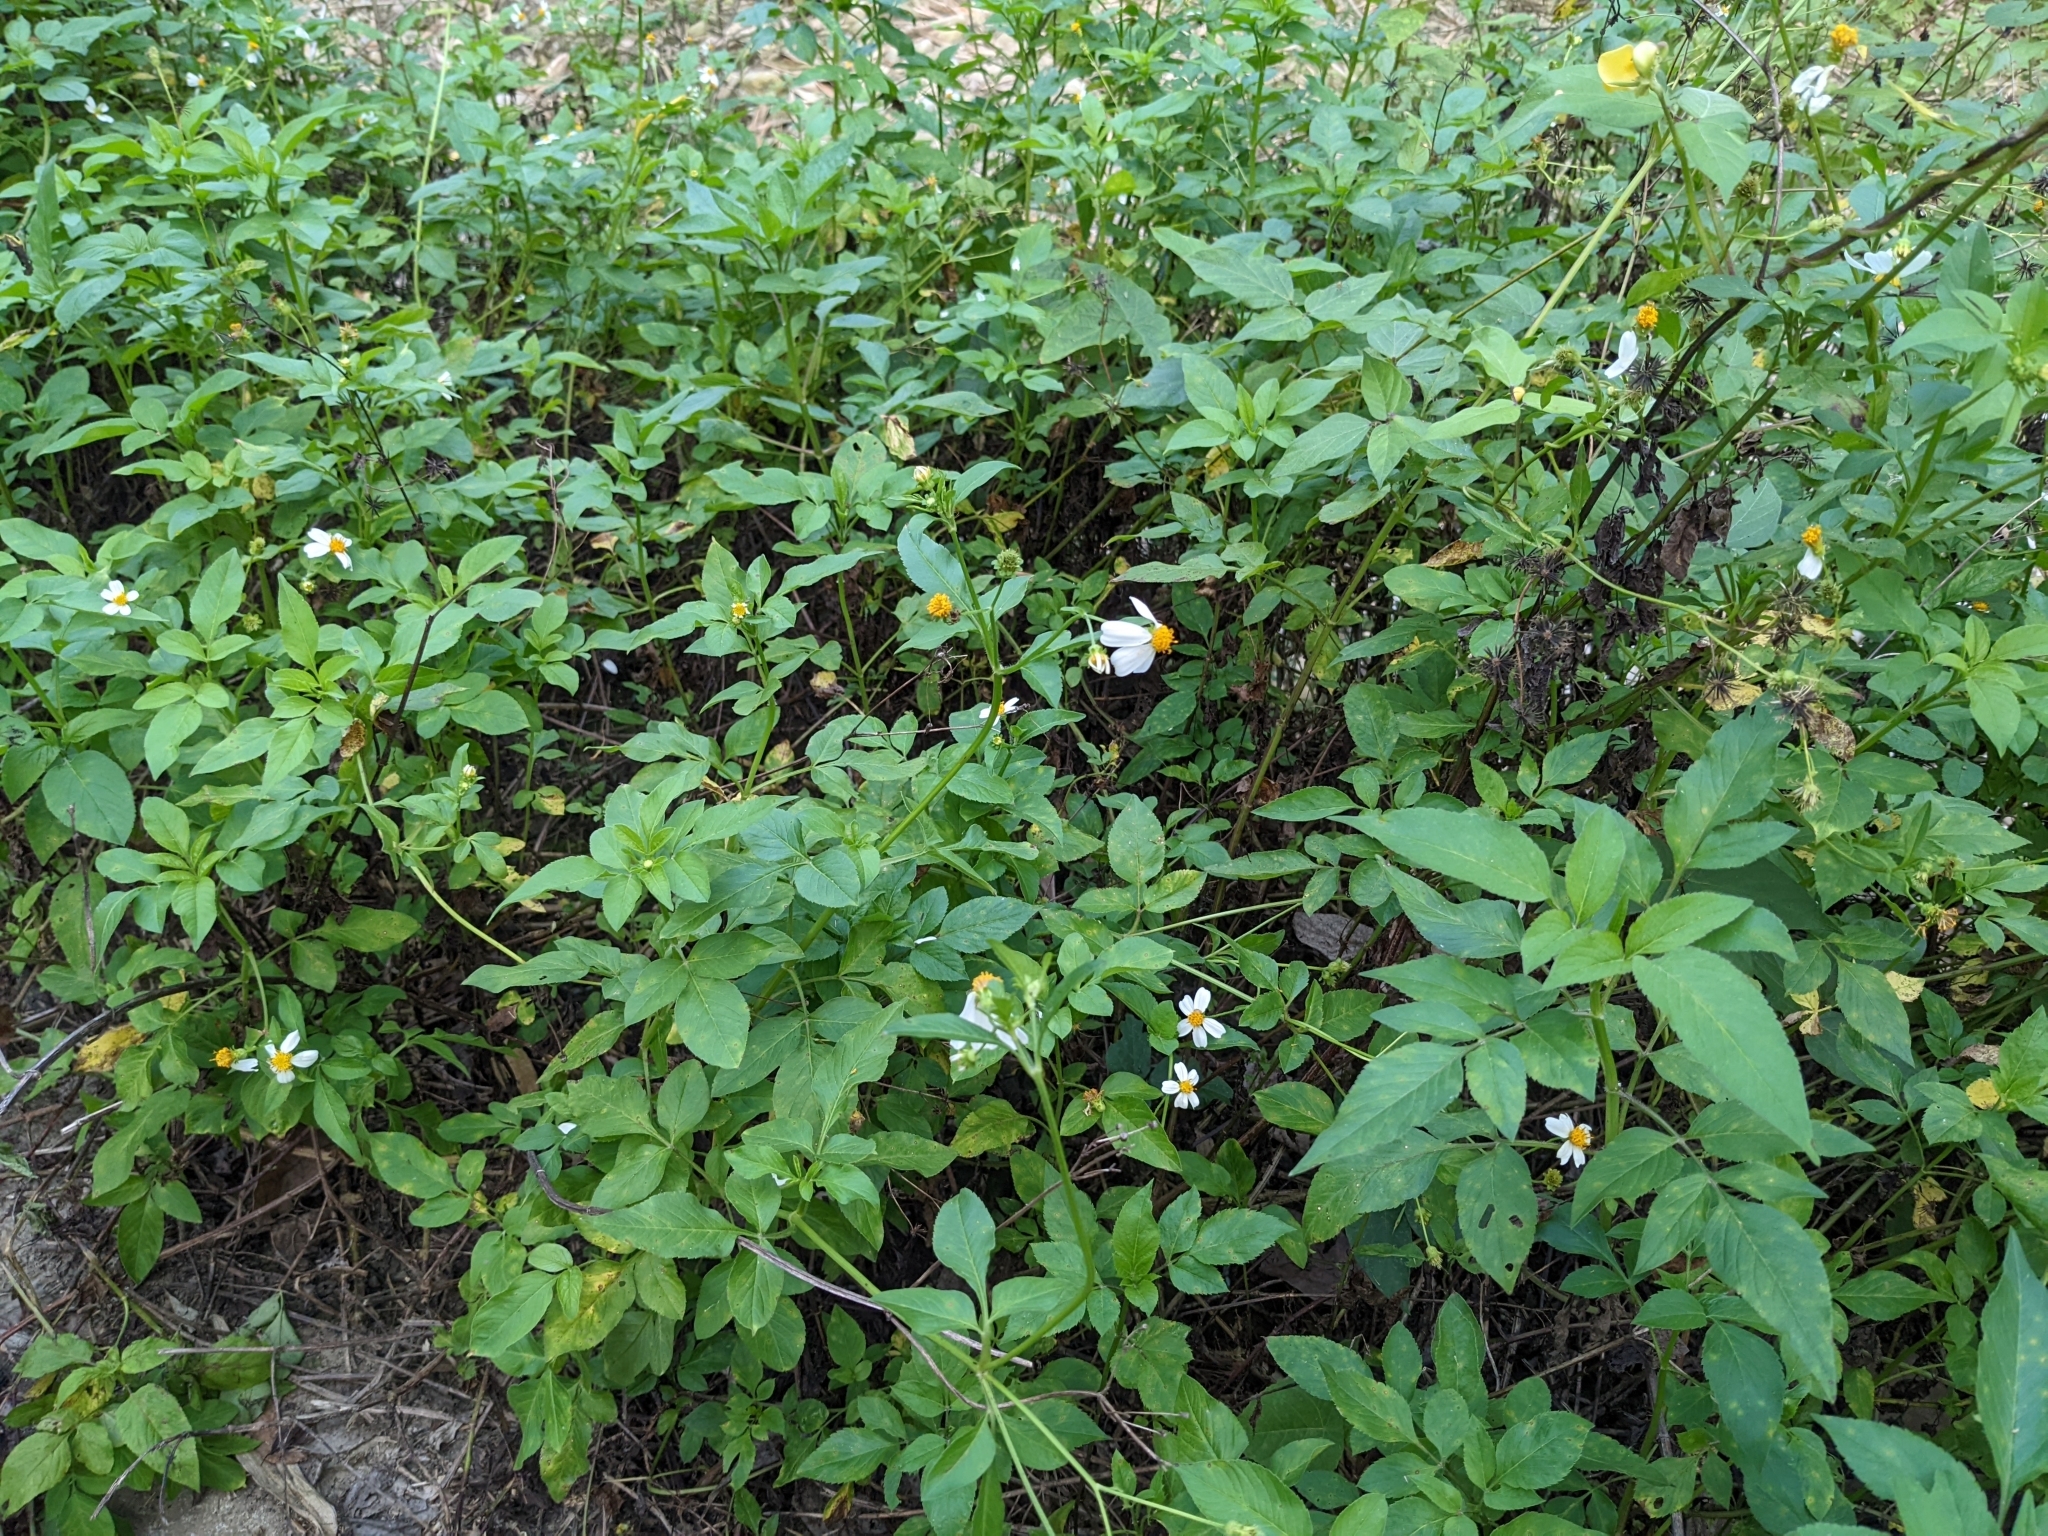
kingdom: Plantae
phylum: Tracheophyta
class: Magnoliopsida
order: Asterales
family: Asteraceae
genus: Bidens
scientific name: Bidens alba
